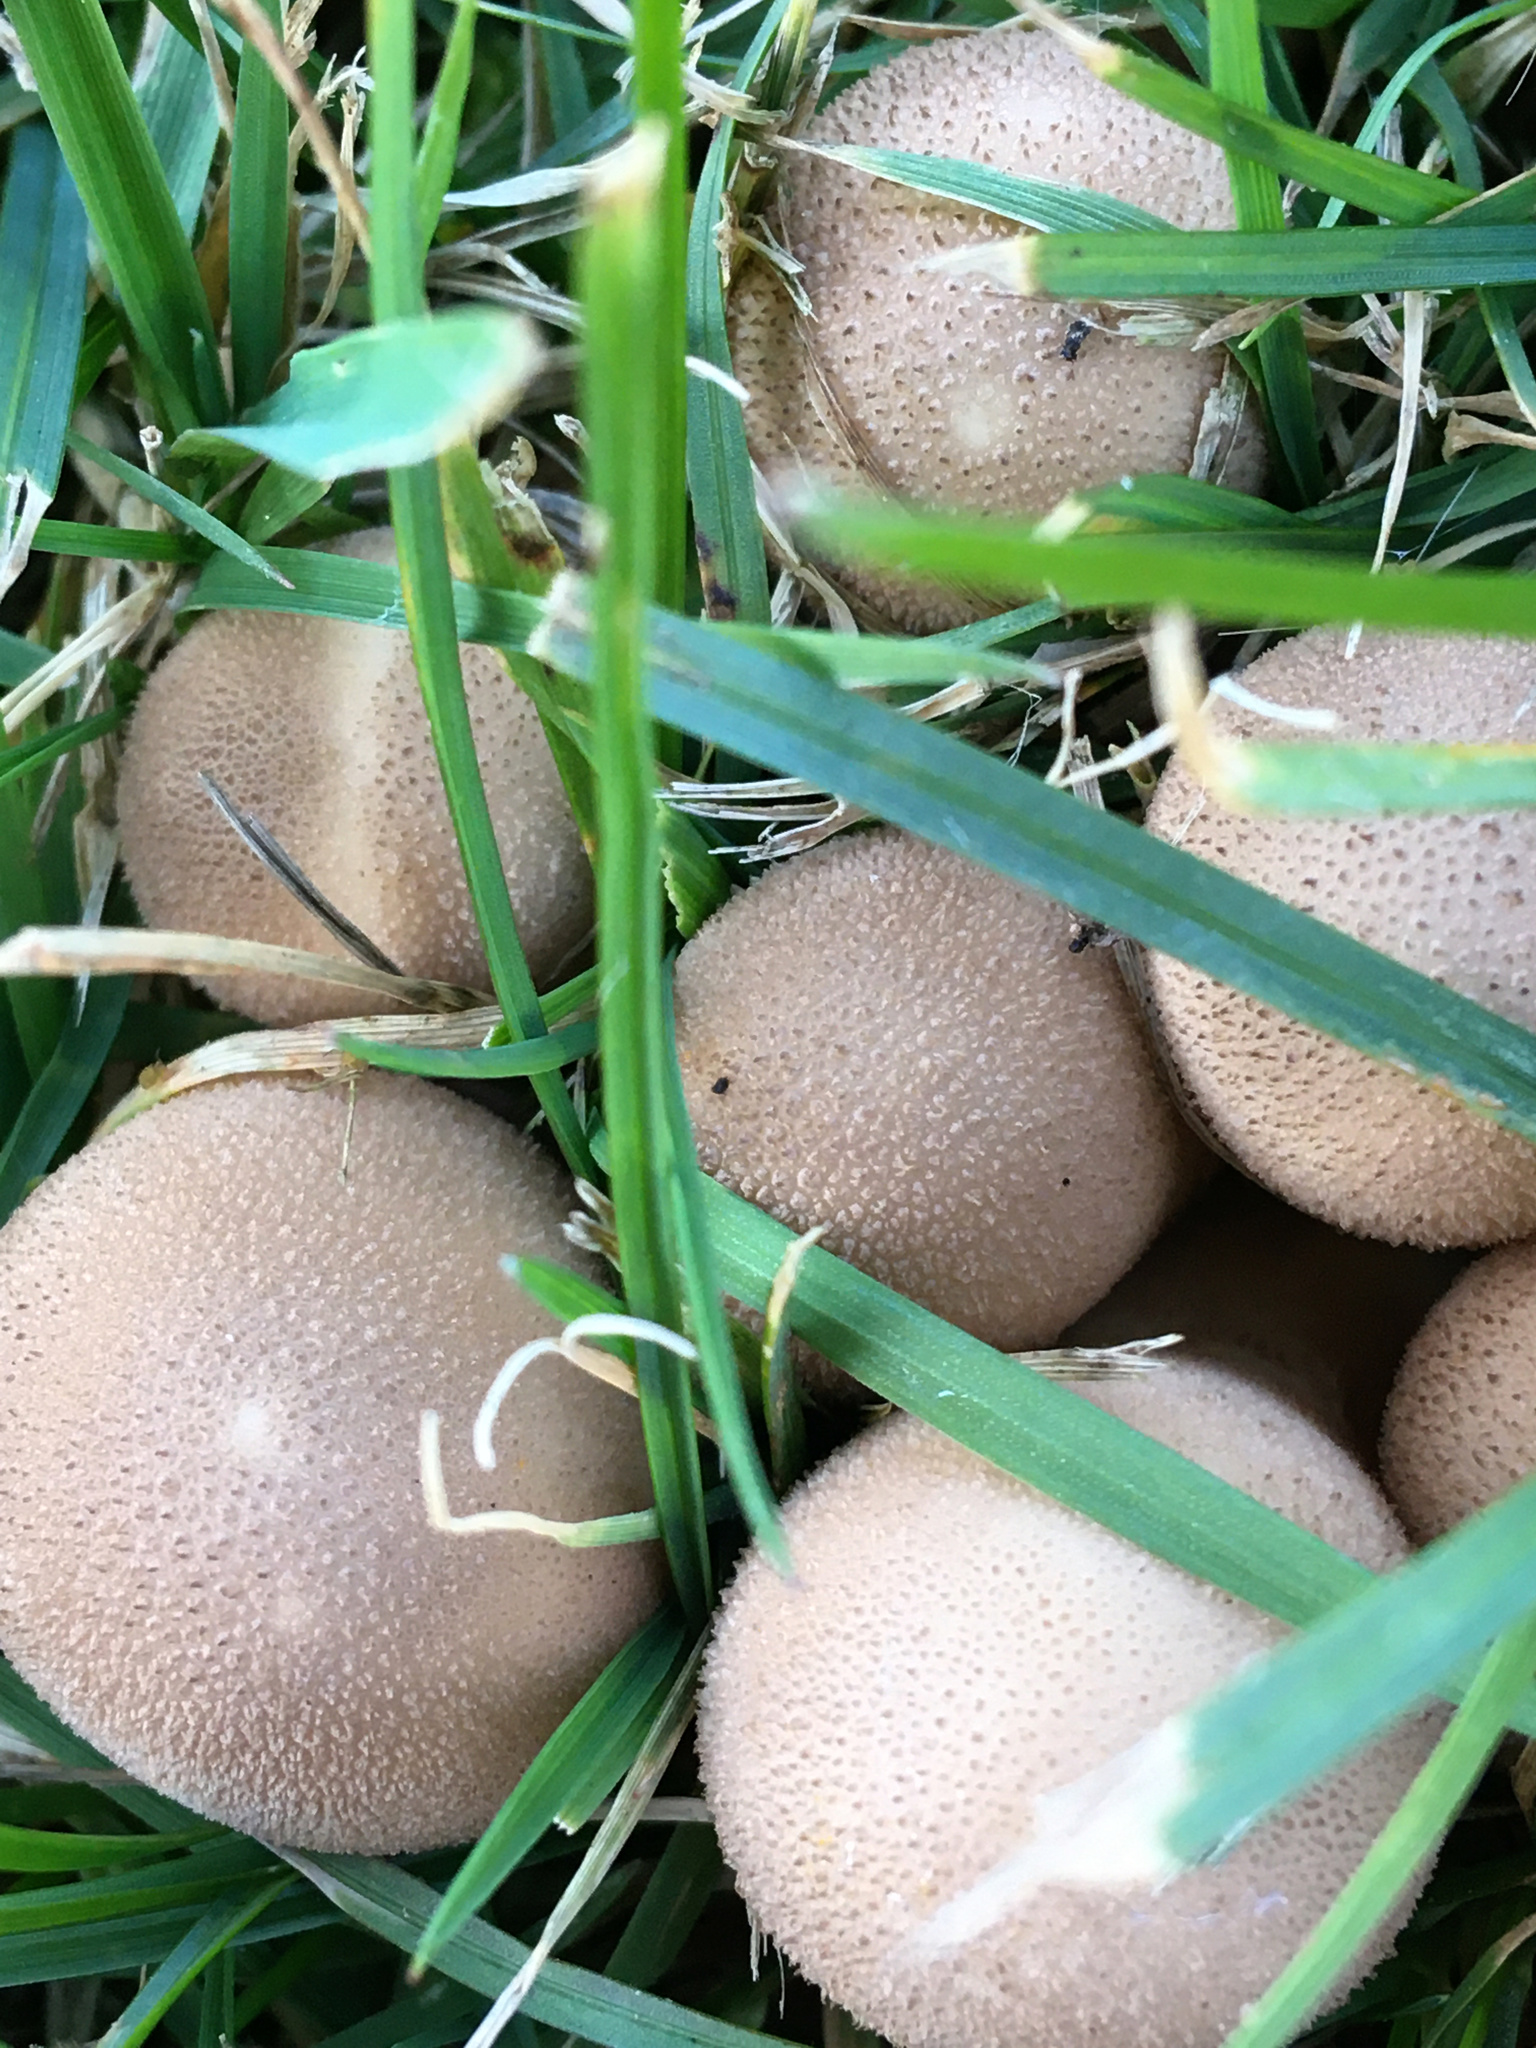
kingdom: Fungi
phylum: Basidiomycota
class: Agaricomycetes
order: Agaricales
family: Lycoperdaceae
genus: Apioperdon
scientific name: Apioperdon pyriforme
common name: Pear-shaped puffball
